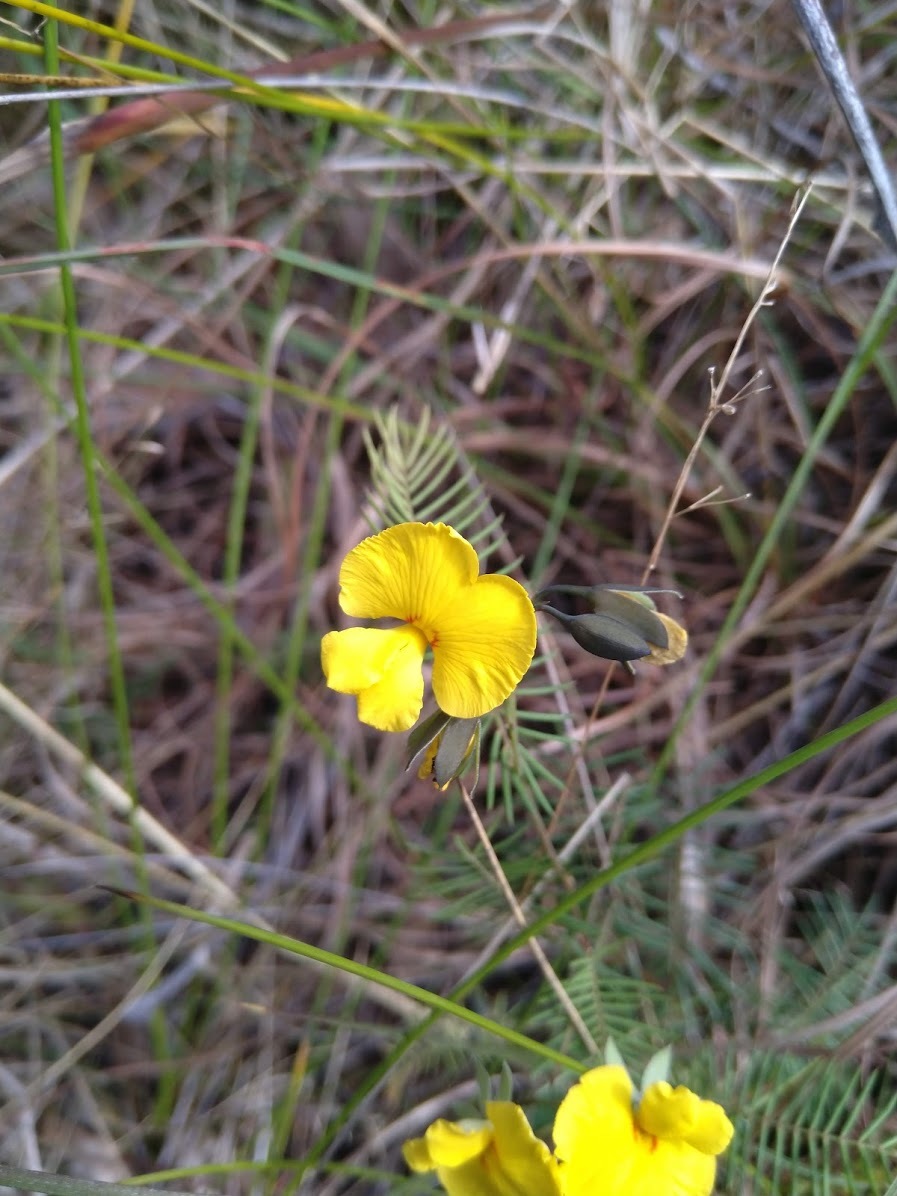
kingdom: Plantae
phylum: Tracheophyta
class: Magnoliopsida
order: Fabales
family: Fabaceae
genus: Gompholobium
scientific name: Gompholobium pinnatum
